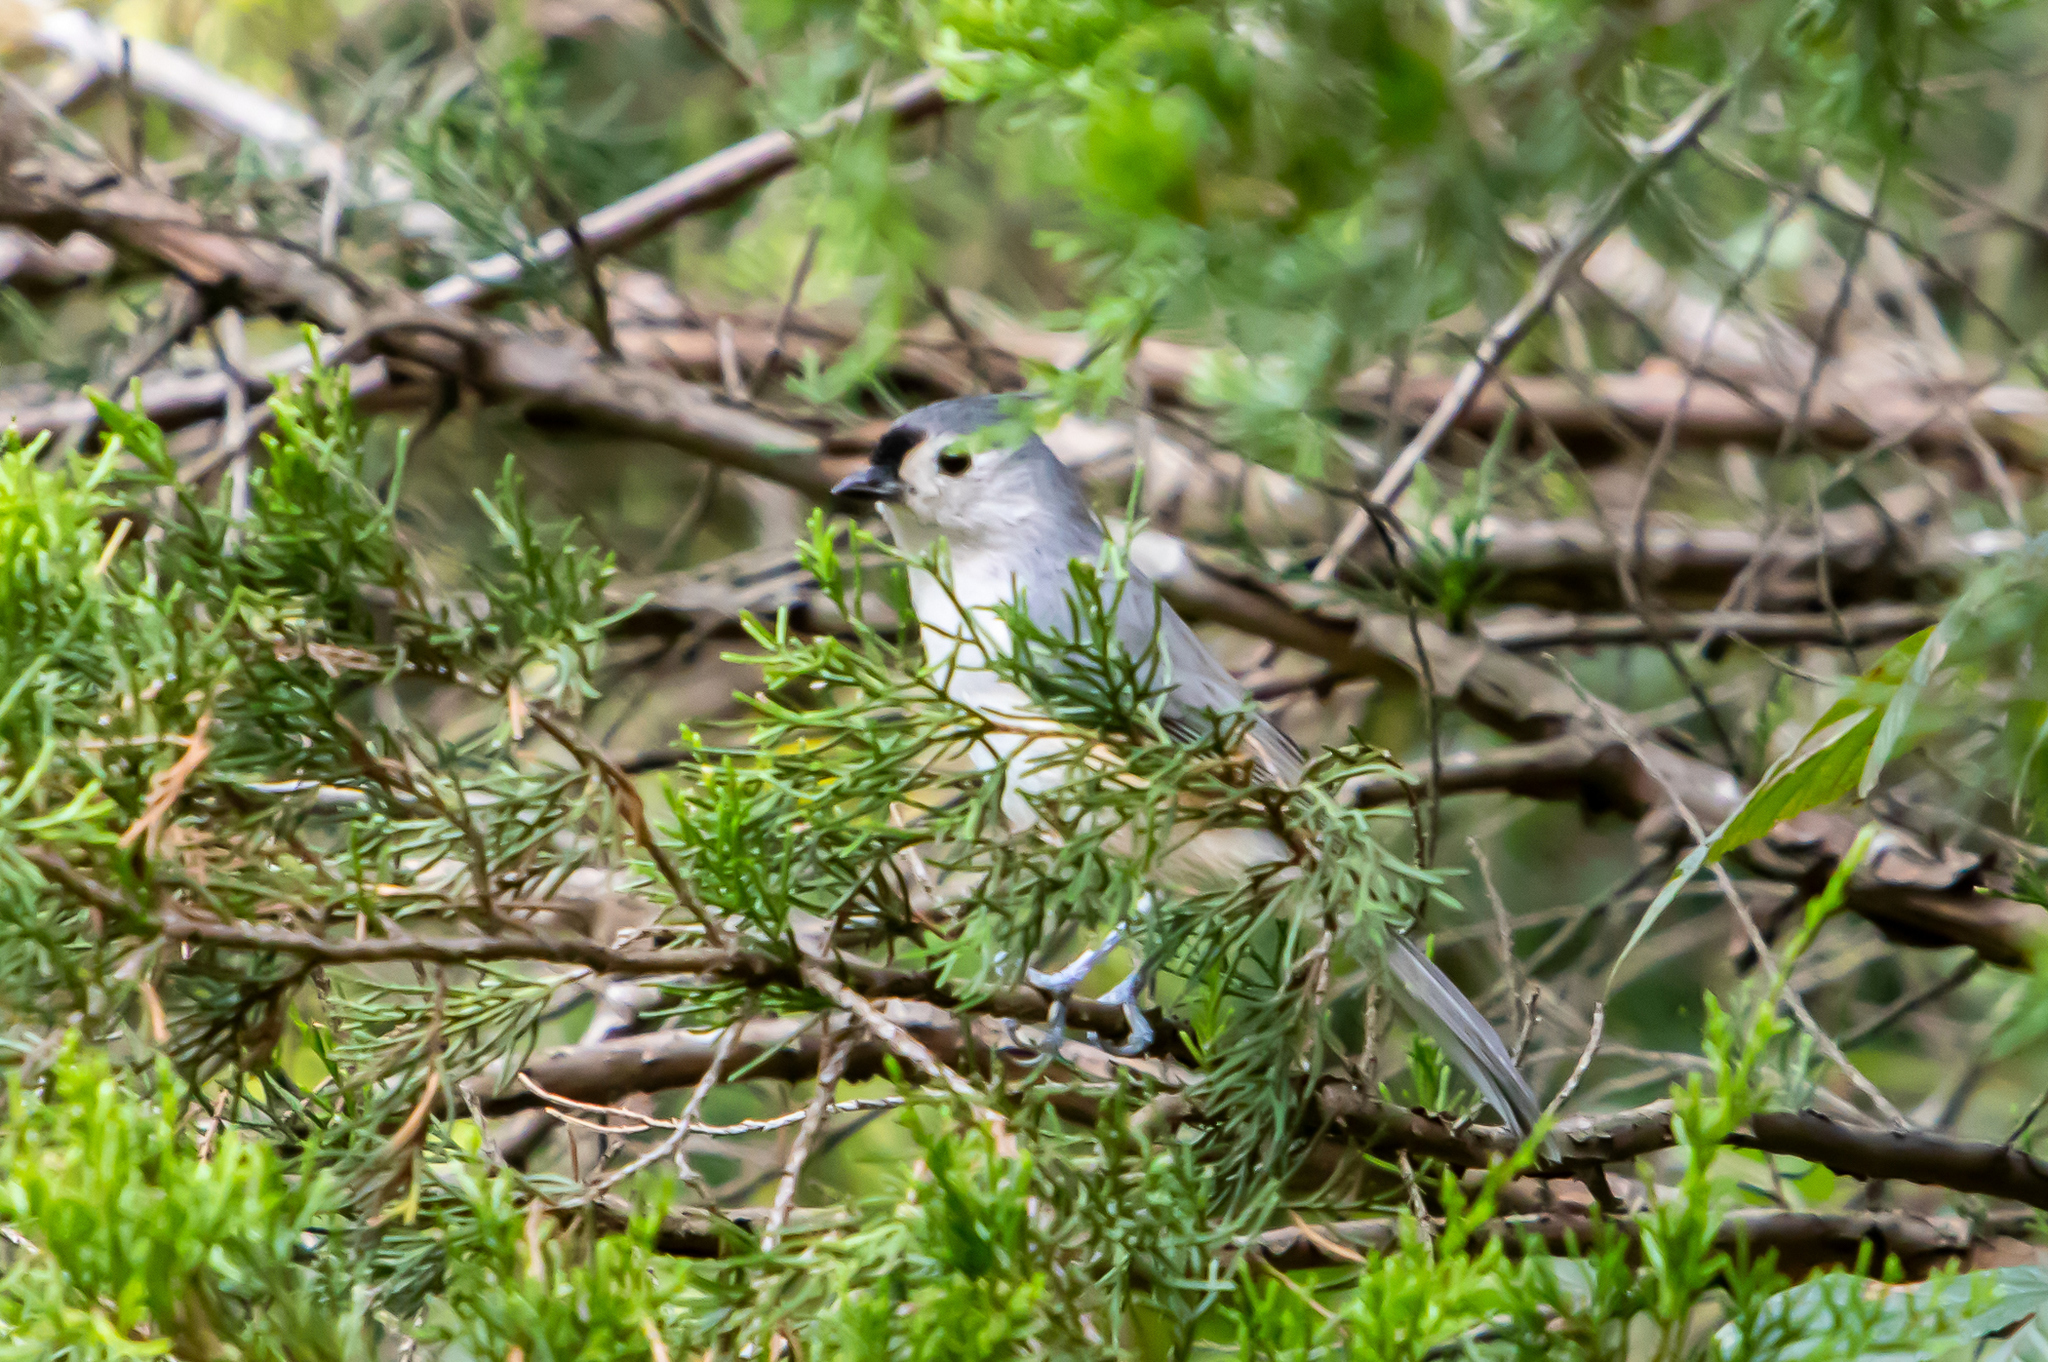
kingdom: Animalia
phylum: Chordata
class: Aves
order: Passeriformes
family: Paridae
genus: Baeolophus
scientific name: Baeolophus bicolor
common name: Tufted titmouse
